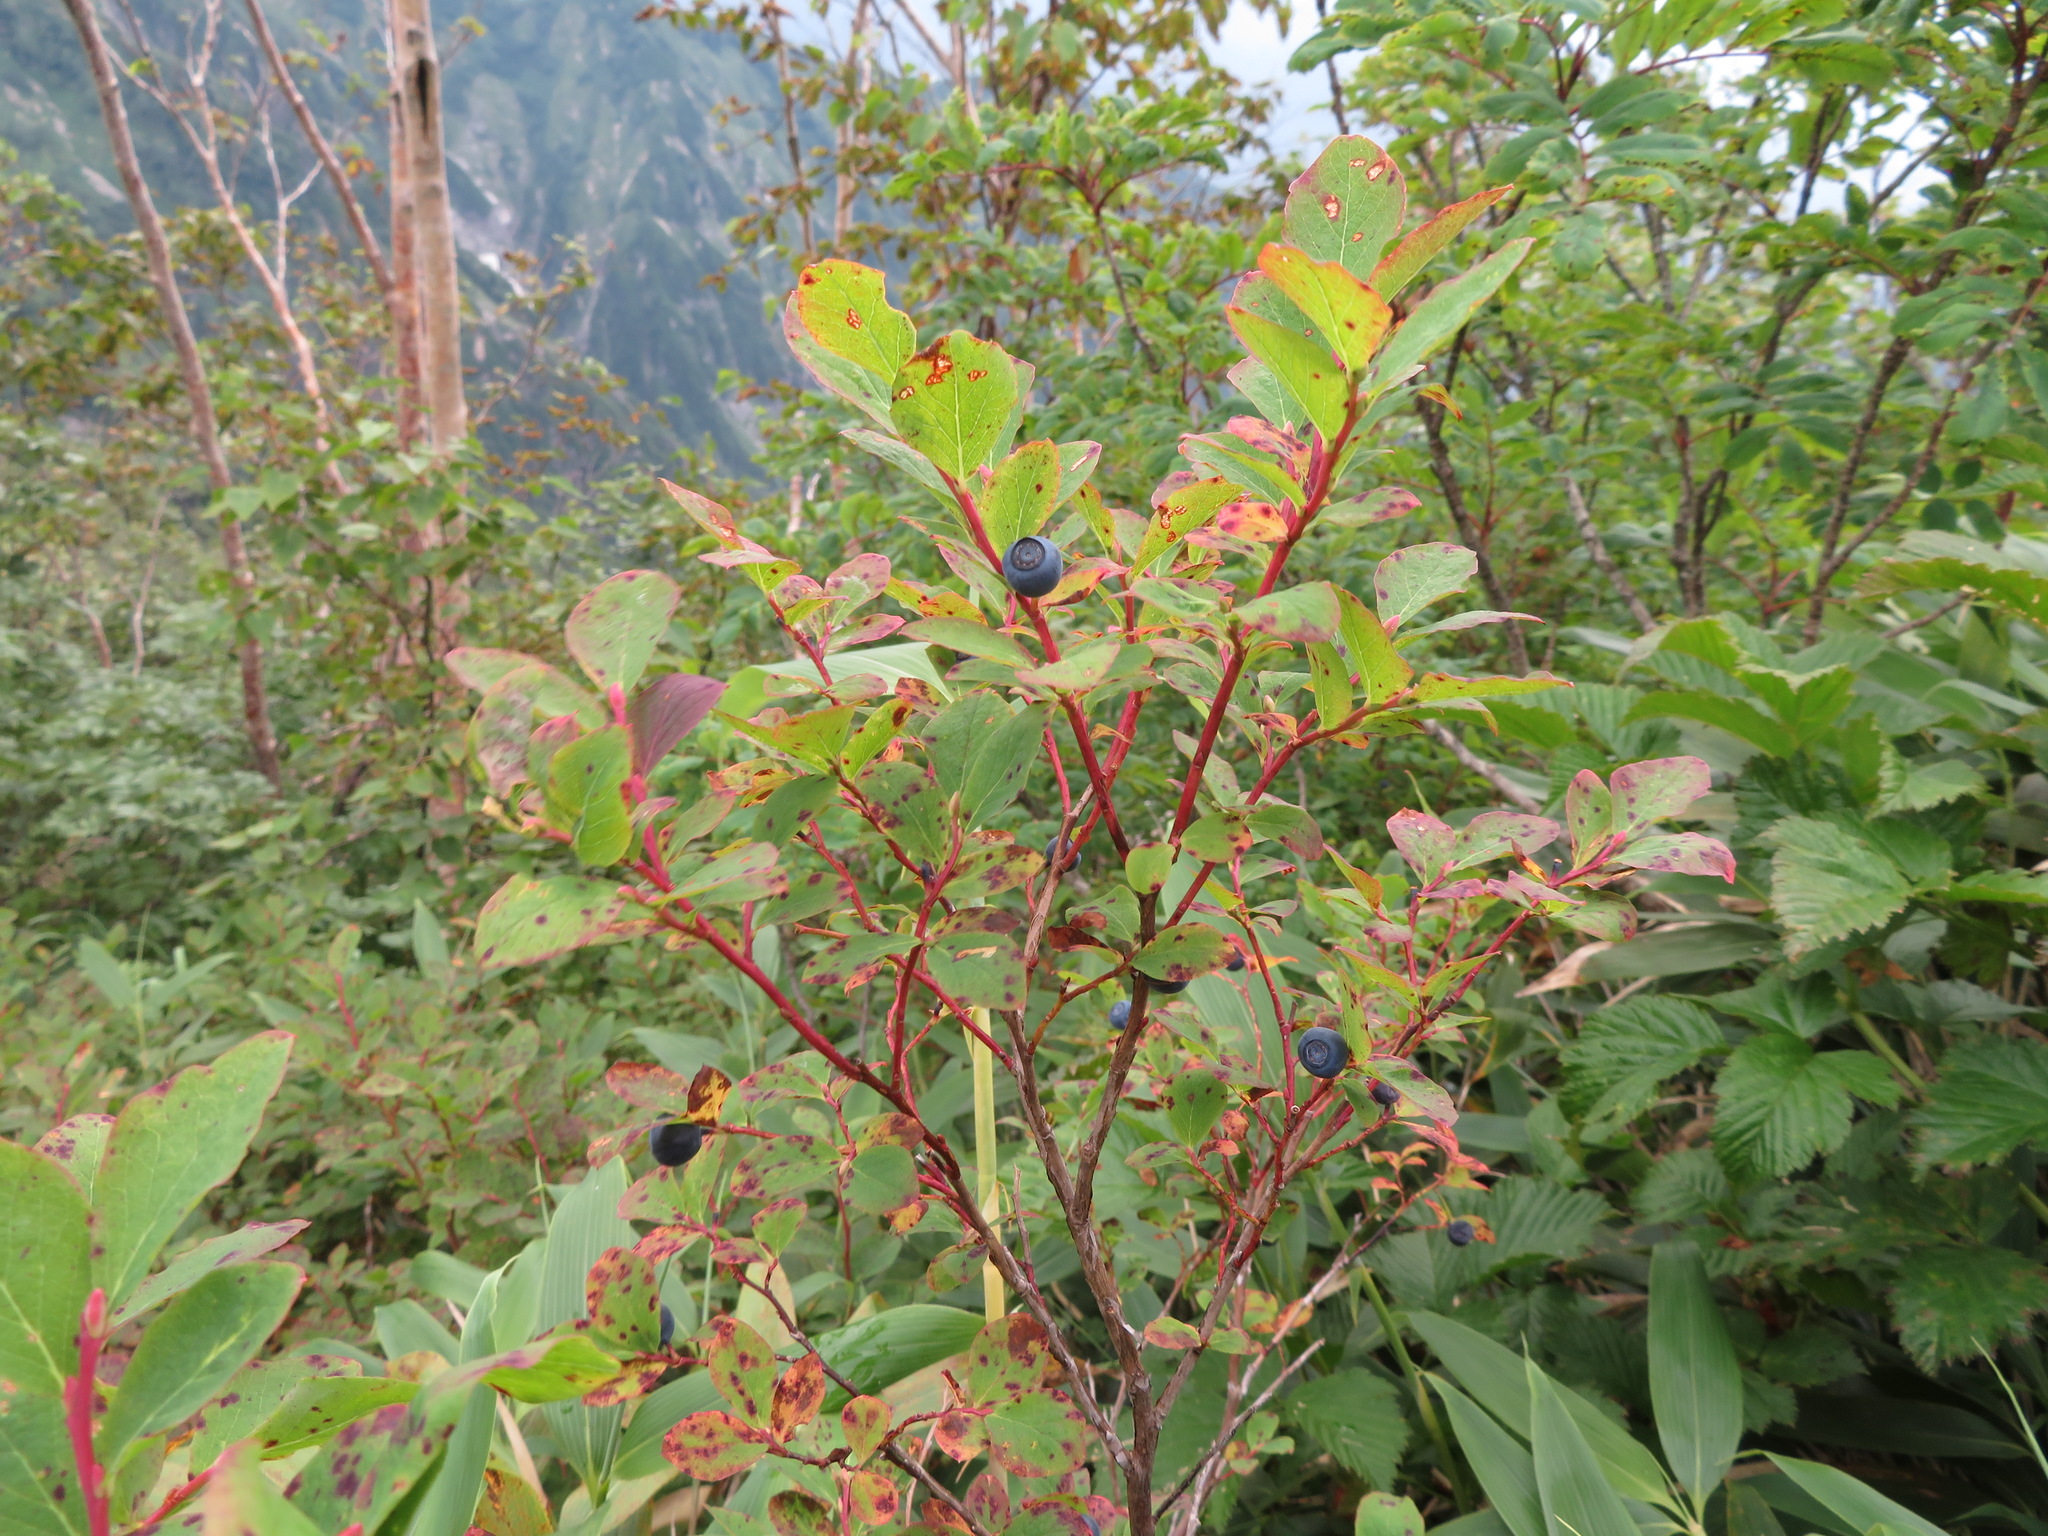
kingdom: Plantae
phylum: Tracheophyta
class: Magnoliopsida
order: Ericales
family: Ericaceae
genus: Vaccinium
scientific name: Vaccinium ovalifolium
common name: Early blueberry
